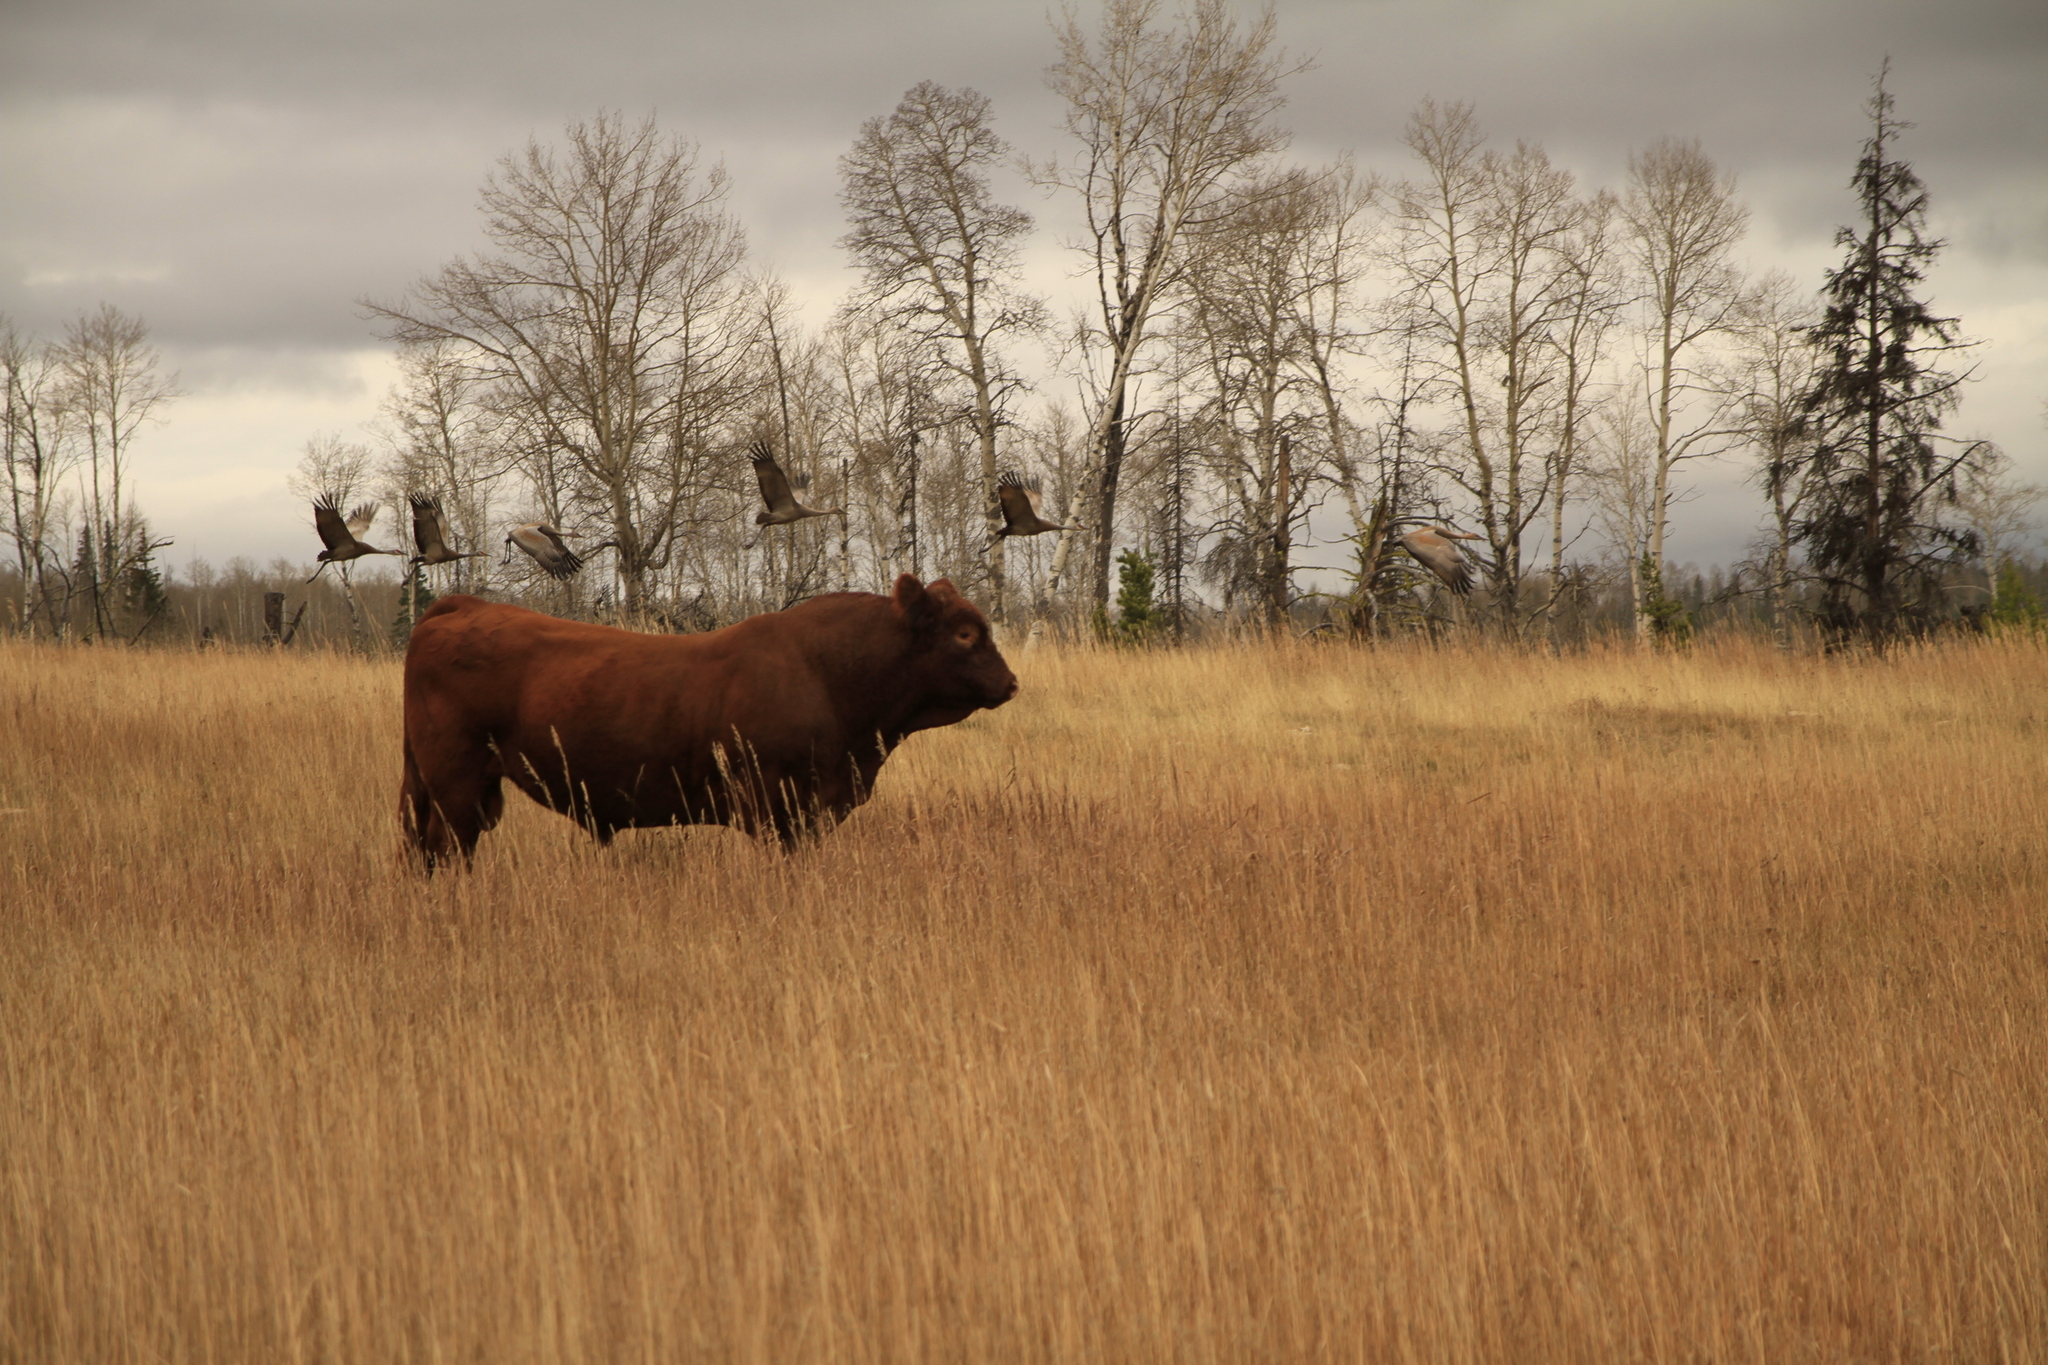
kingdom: Animalia
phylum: Chordata
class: Aves
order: Gruiformes
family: Gruidae
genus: Grus
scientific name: Grus canadensis
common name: Sandhill crane
